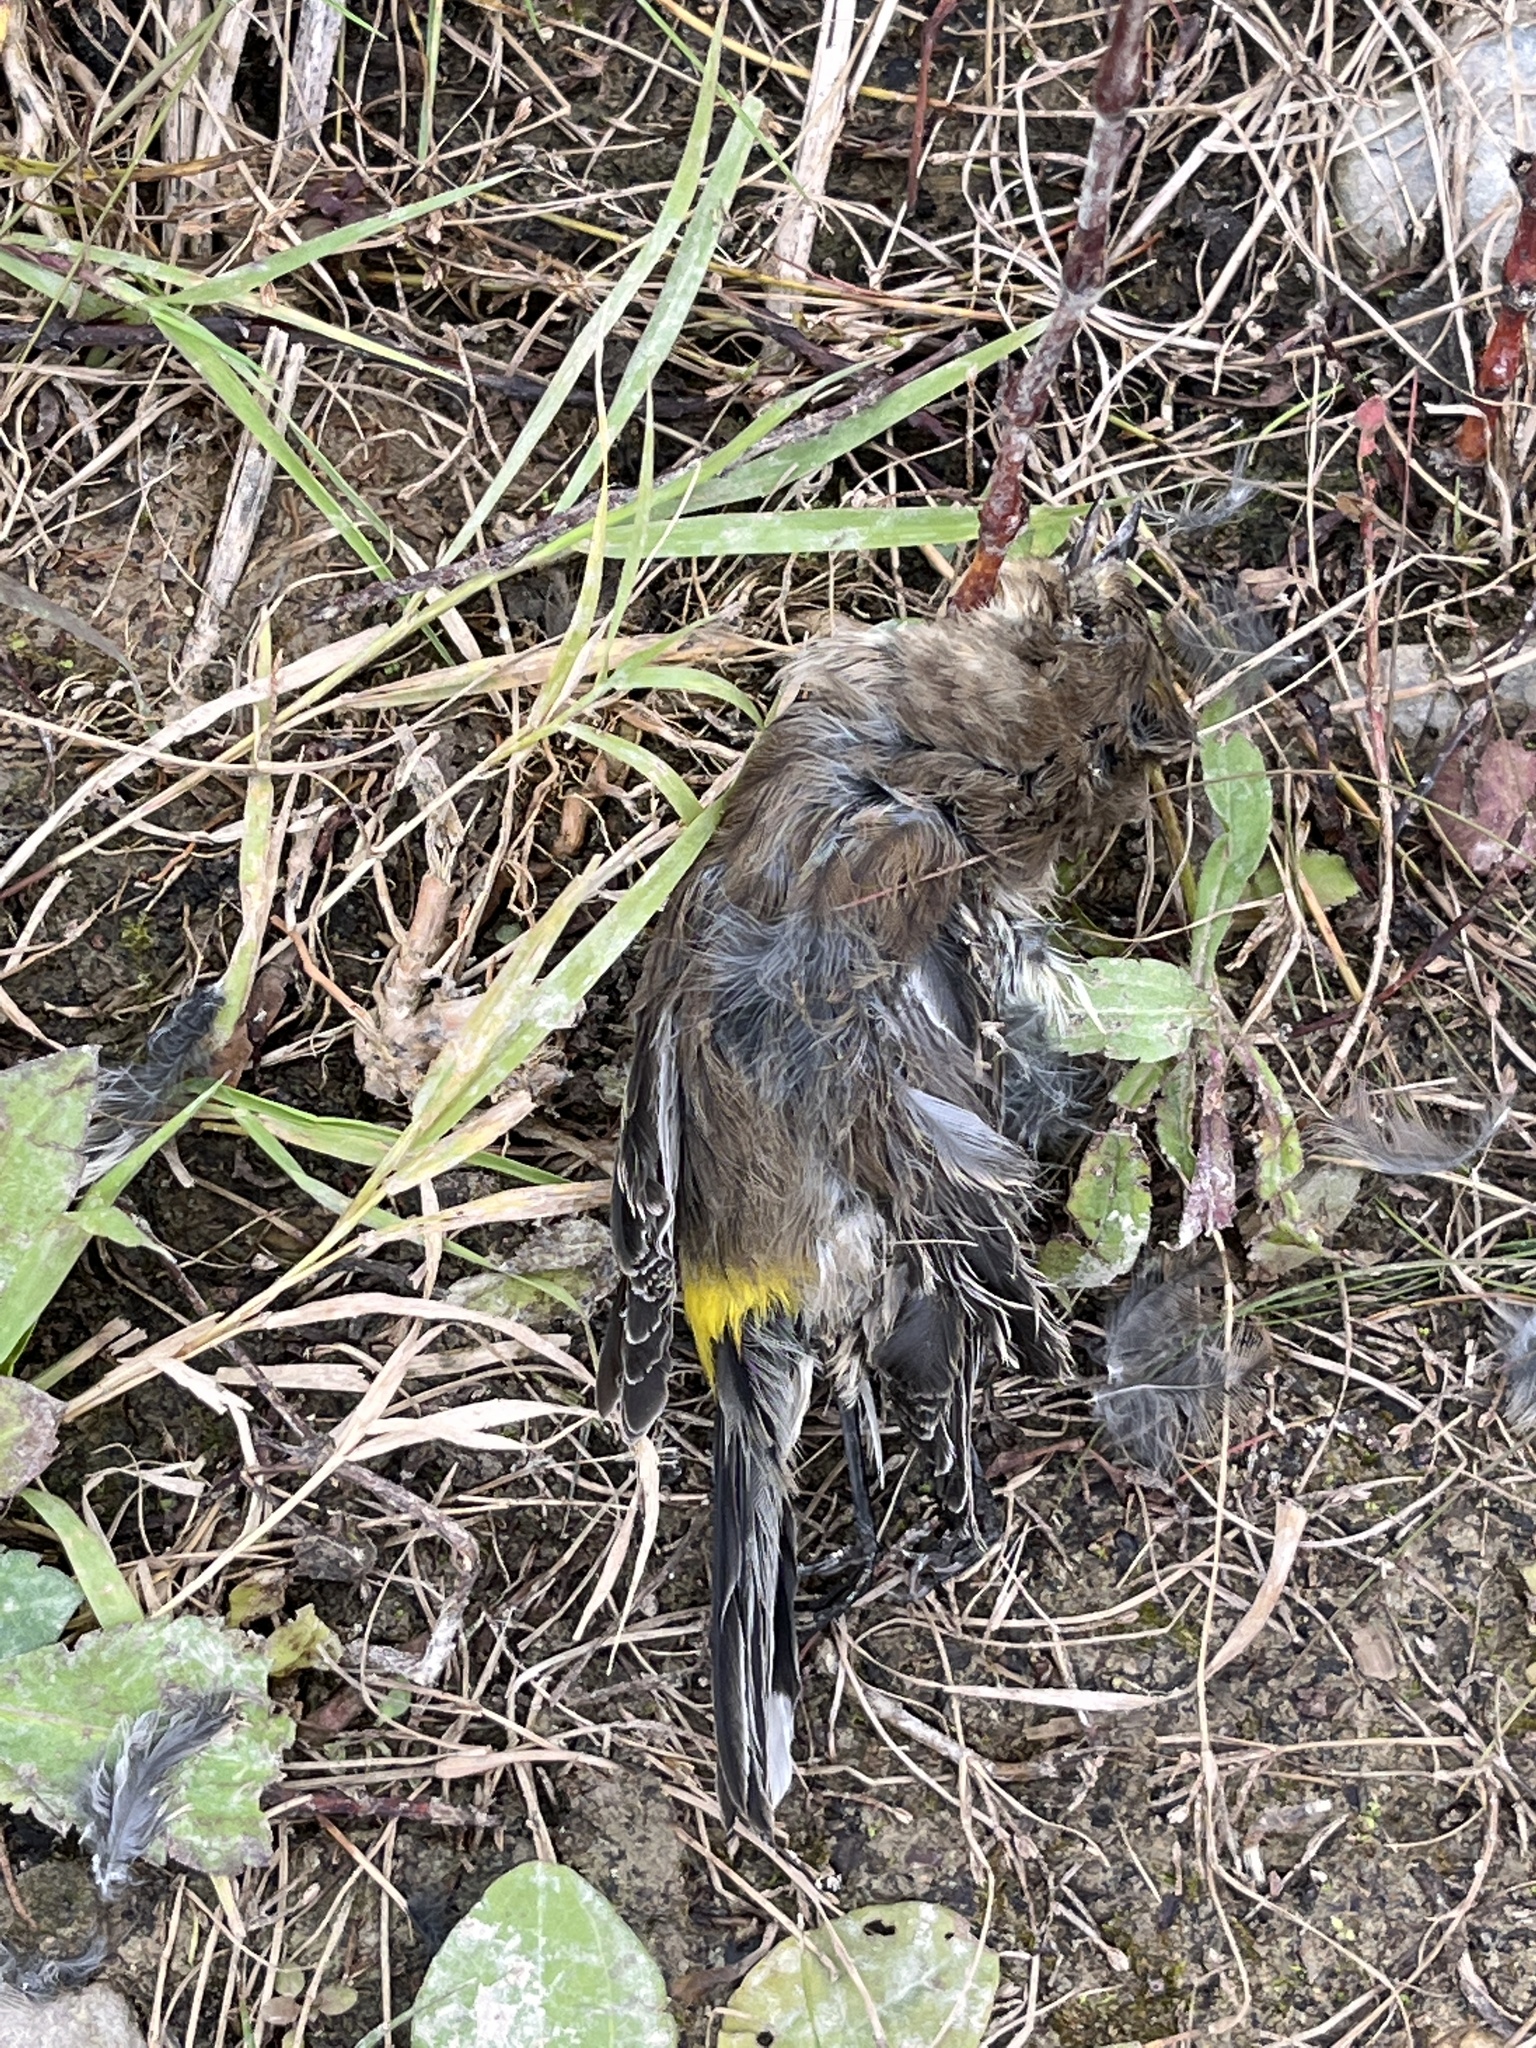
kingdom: Animalia
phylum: Chordata
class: Aves
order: Passeriformes
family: Parulidae
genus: Setophaga
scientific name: Setophaga coronata
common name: Myrtle warbler
